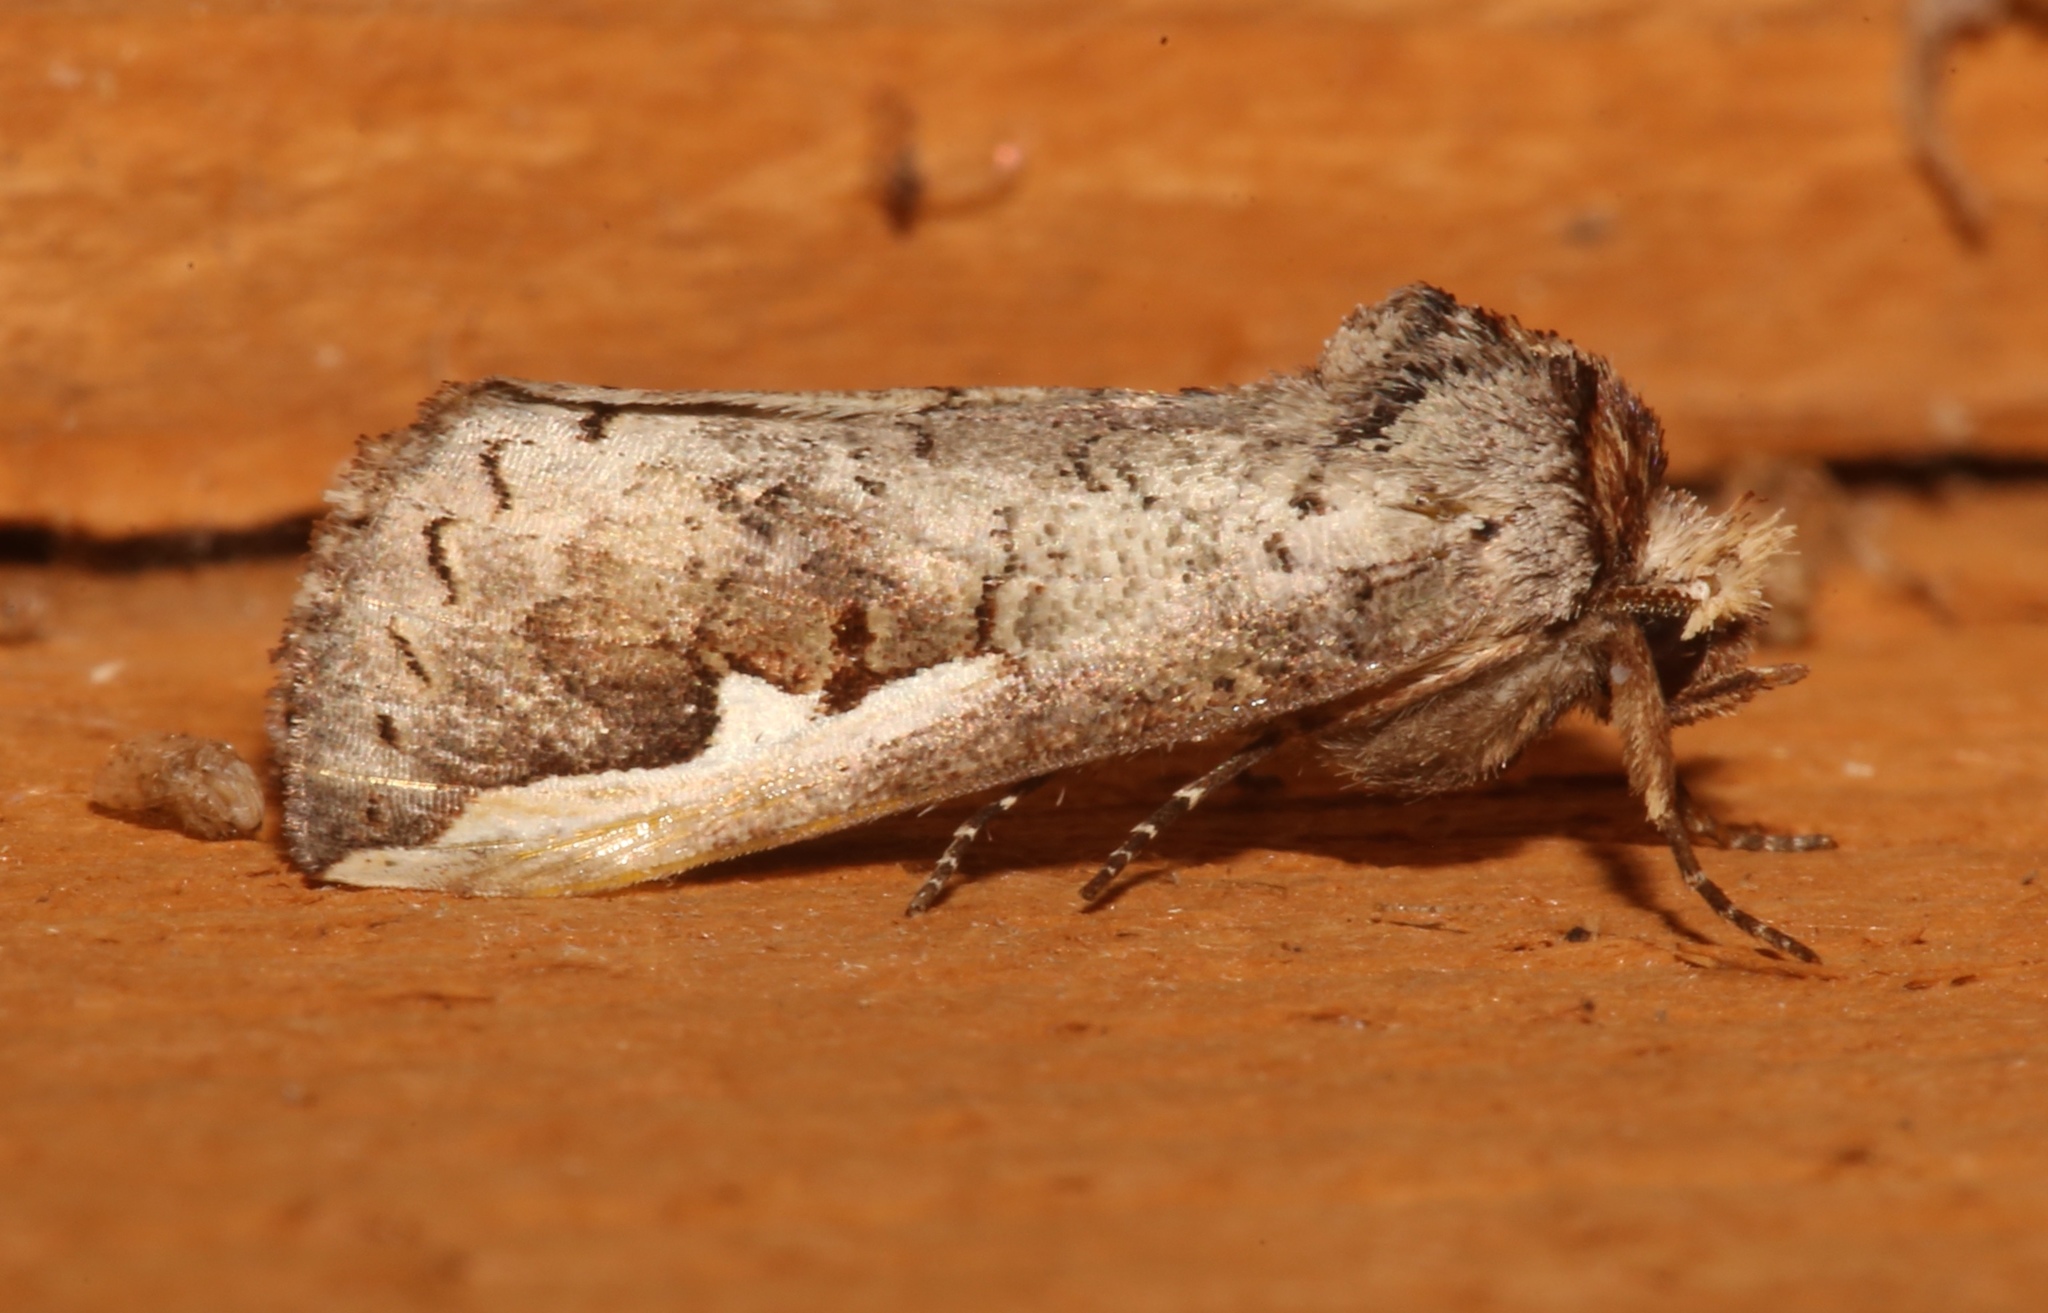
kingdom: Animalia
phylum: Arthropoda
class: Insecta
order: Lepidoptera
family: Notodontidae
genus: Symmerista
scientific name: Symmerista albifrons
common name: White-headed prominent
